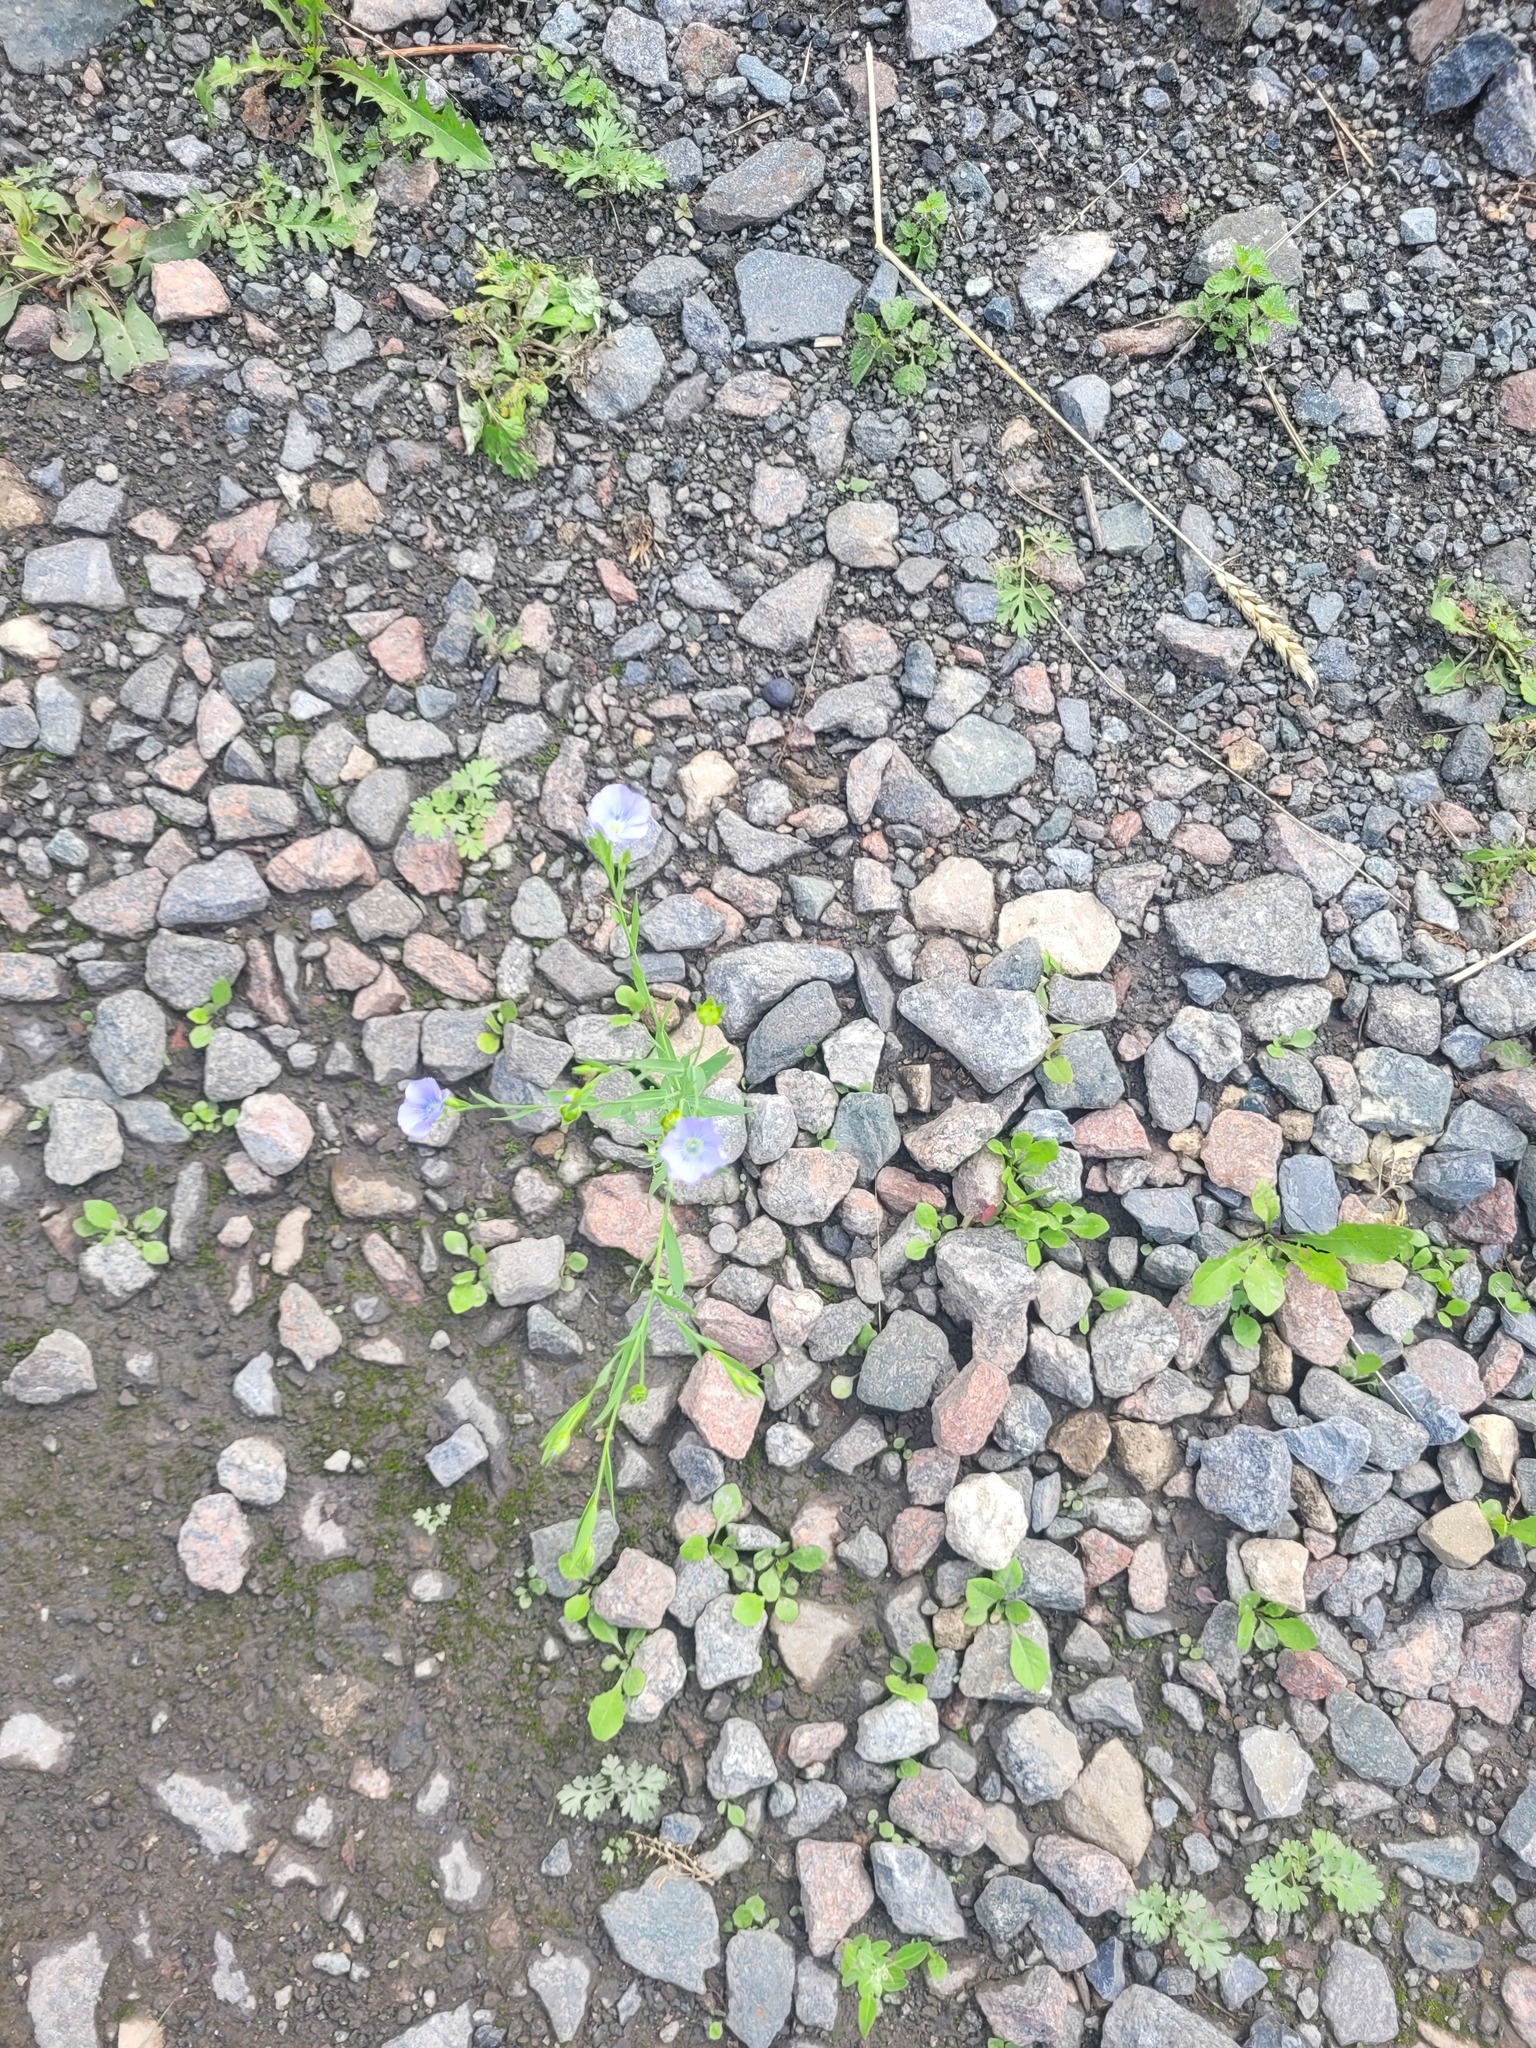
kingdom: Plantae
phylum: Tracheophyta
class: Magnoliopsida
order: Malpighiales
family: Linaceae
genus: Linum
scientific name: Linum usitatissimum
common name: Flax
